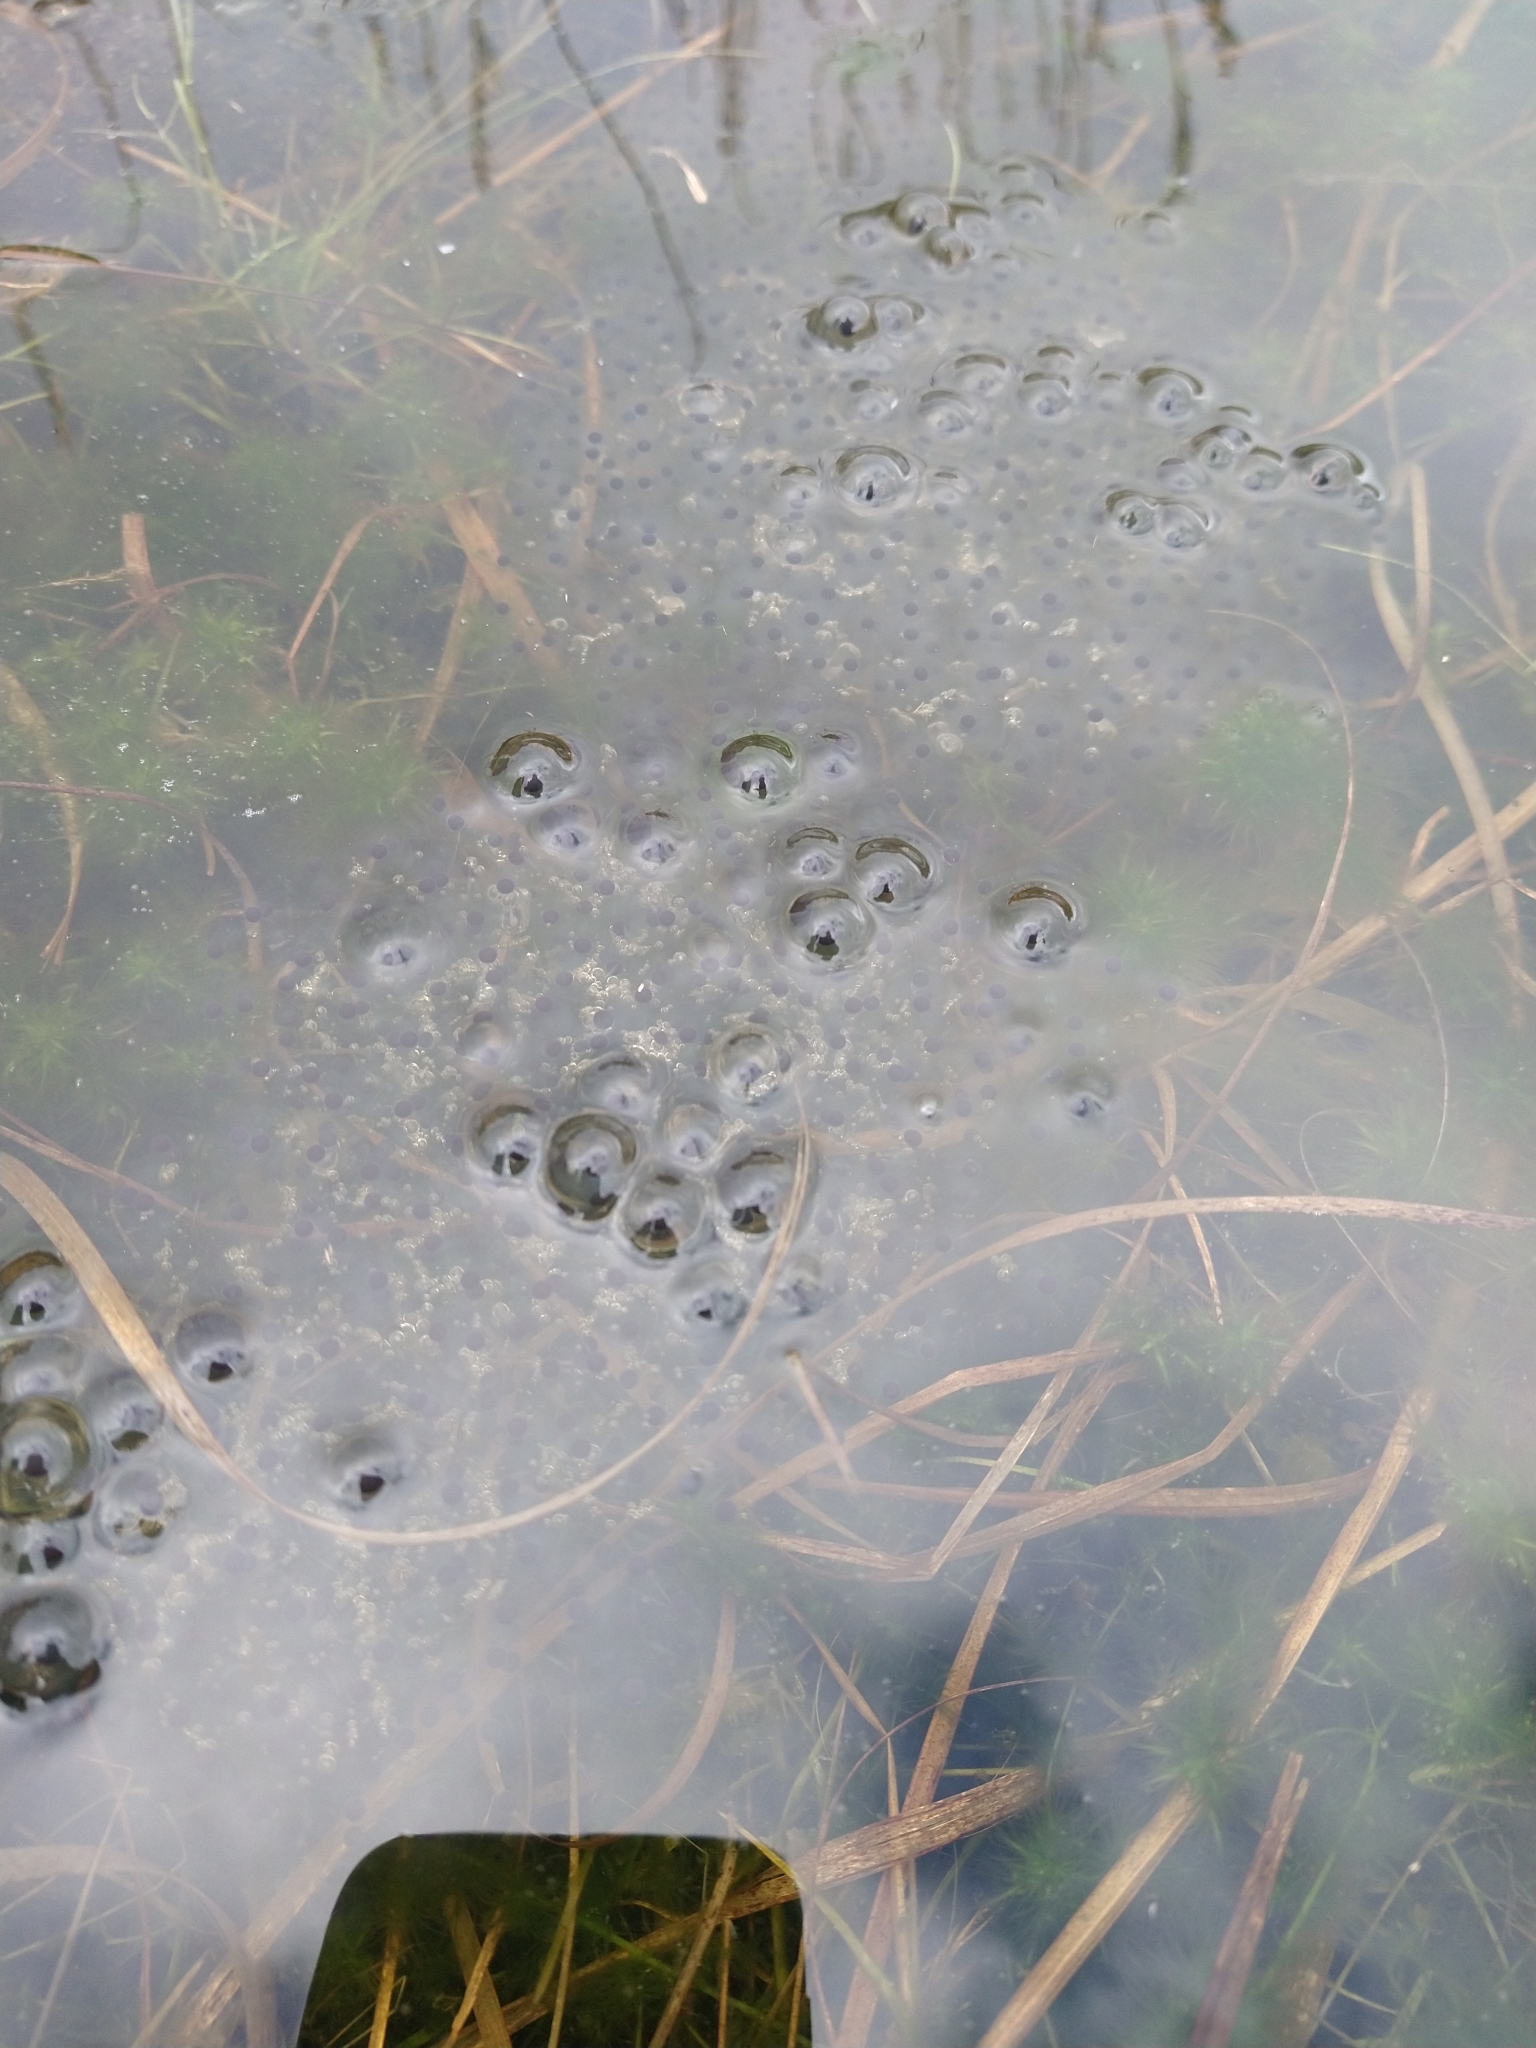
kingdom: Animalia
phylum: Chordata
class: Amphibia
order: Anura
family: Ranidae
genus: Rana
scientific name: Rana temporaria
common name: Common frog
